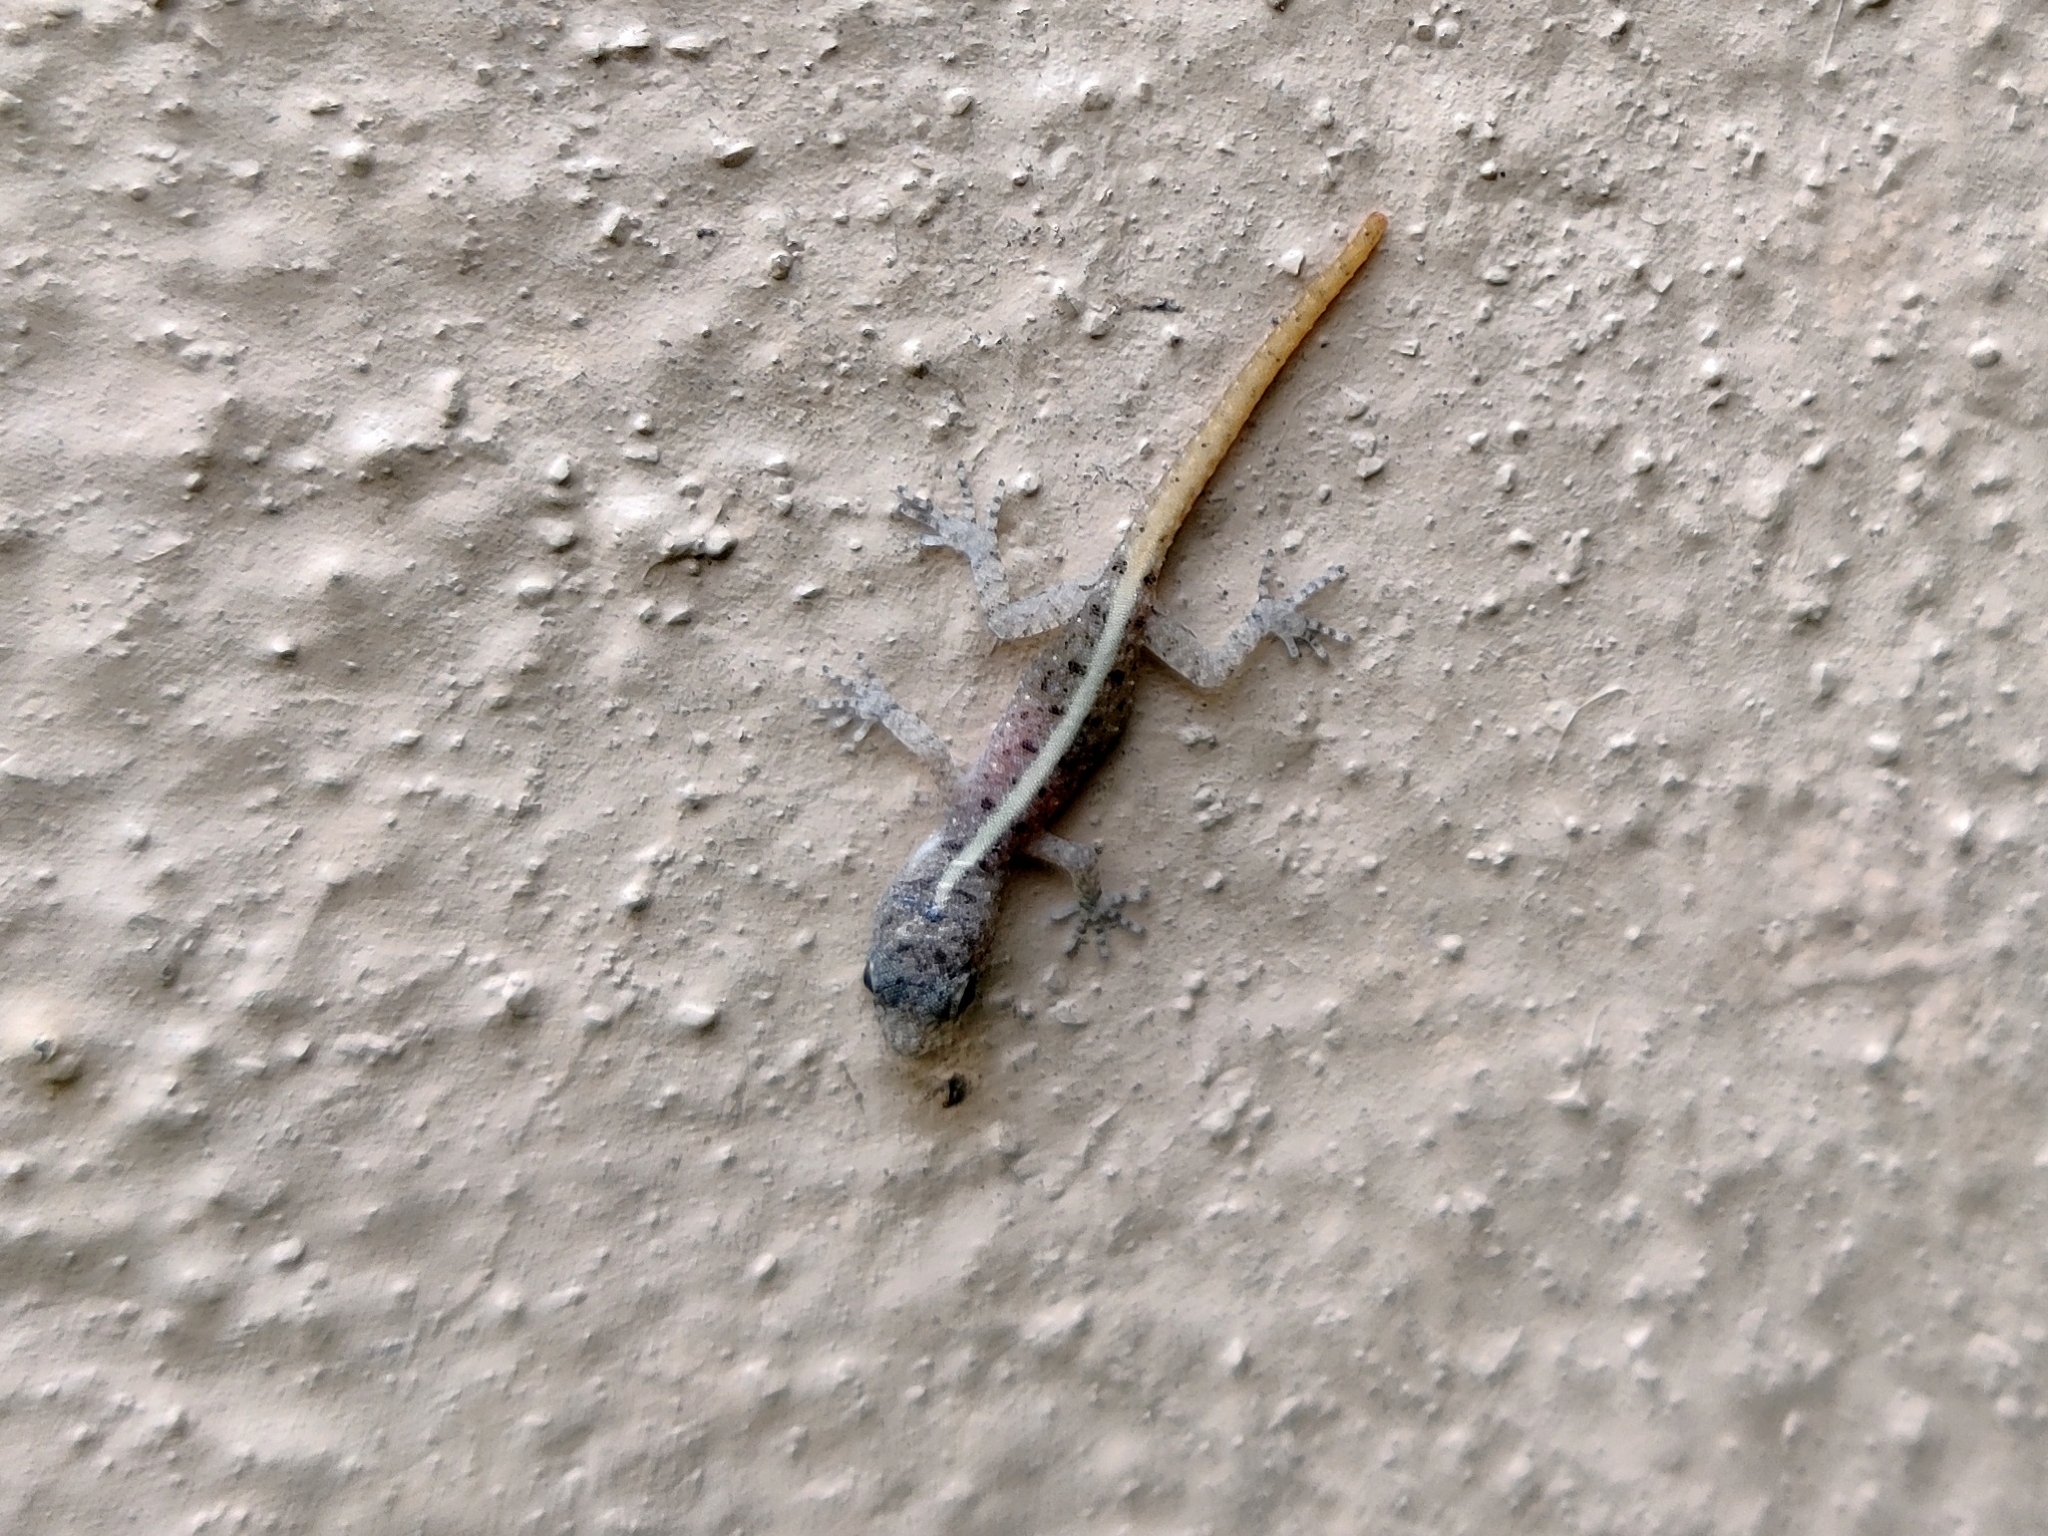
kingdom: Animalia
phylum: Chordata
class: Squamata
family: Gekkonidae
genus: Cnemaspis
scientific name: Cnemaspis mysoriensis
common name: Mysore day gecko
